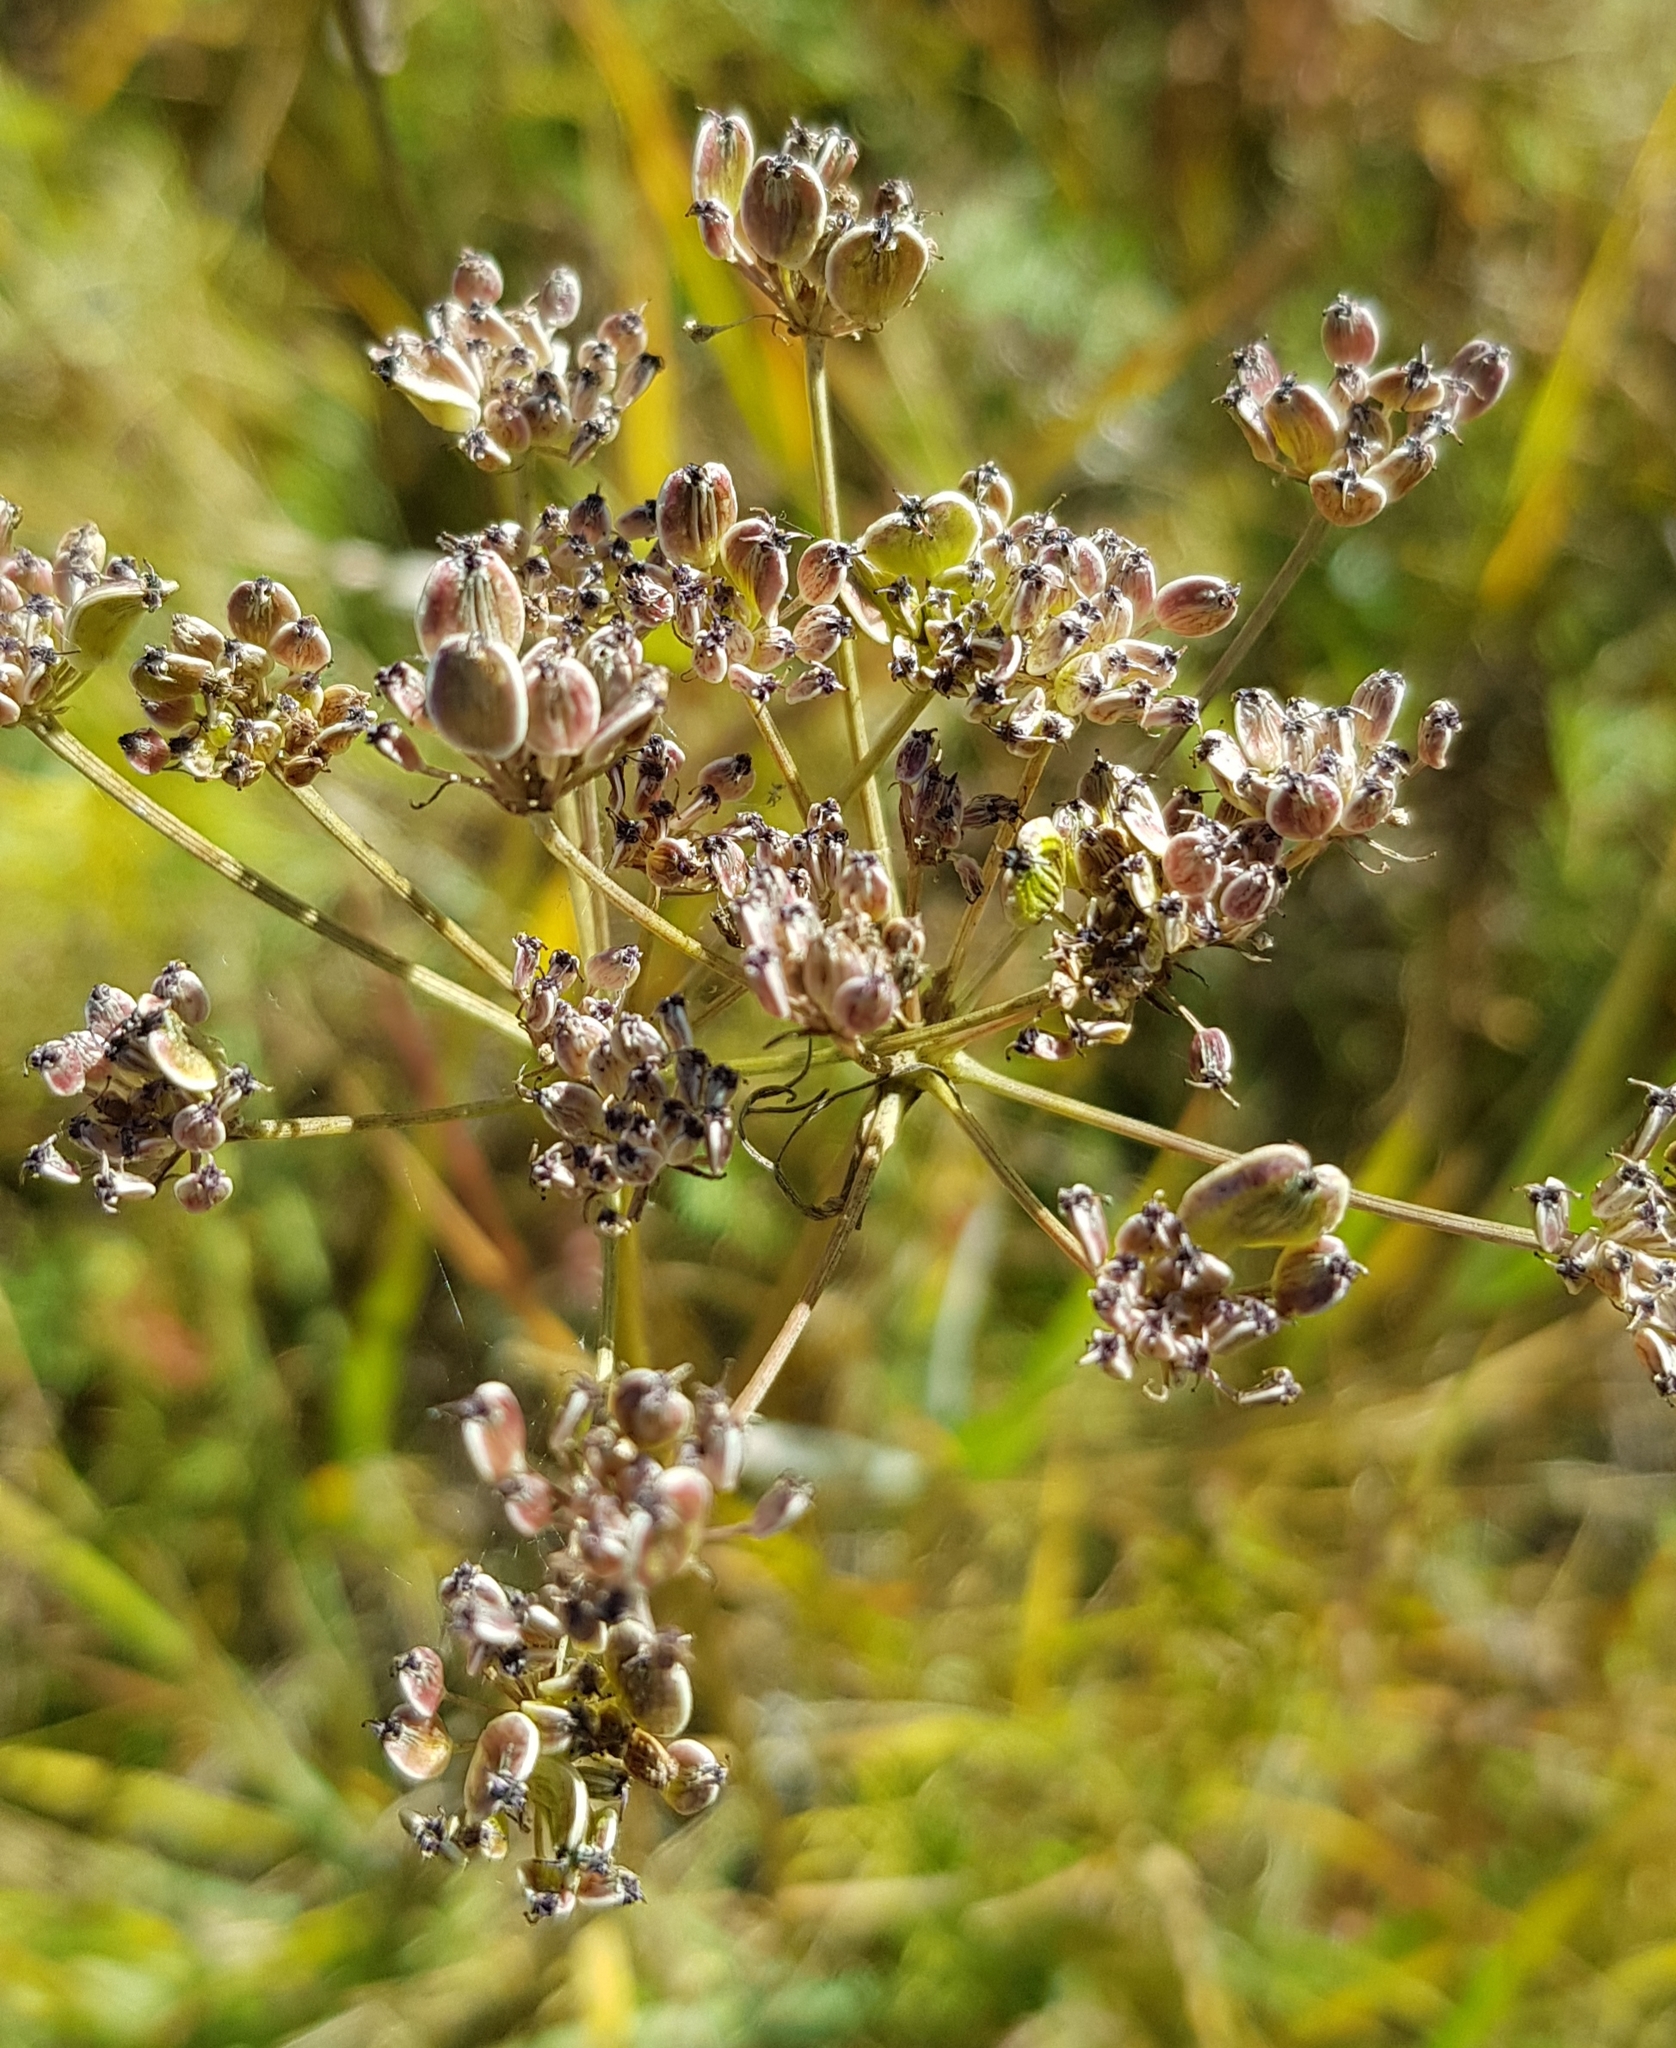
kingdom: Plantae
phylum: Tracheophyta
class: Magnoliopsida
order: Apiales
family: Apiaceae
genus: Cenolophium
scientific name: Cenolophium fischeri
